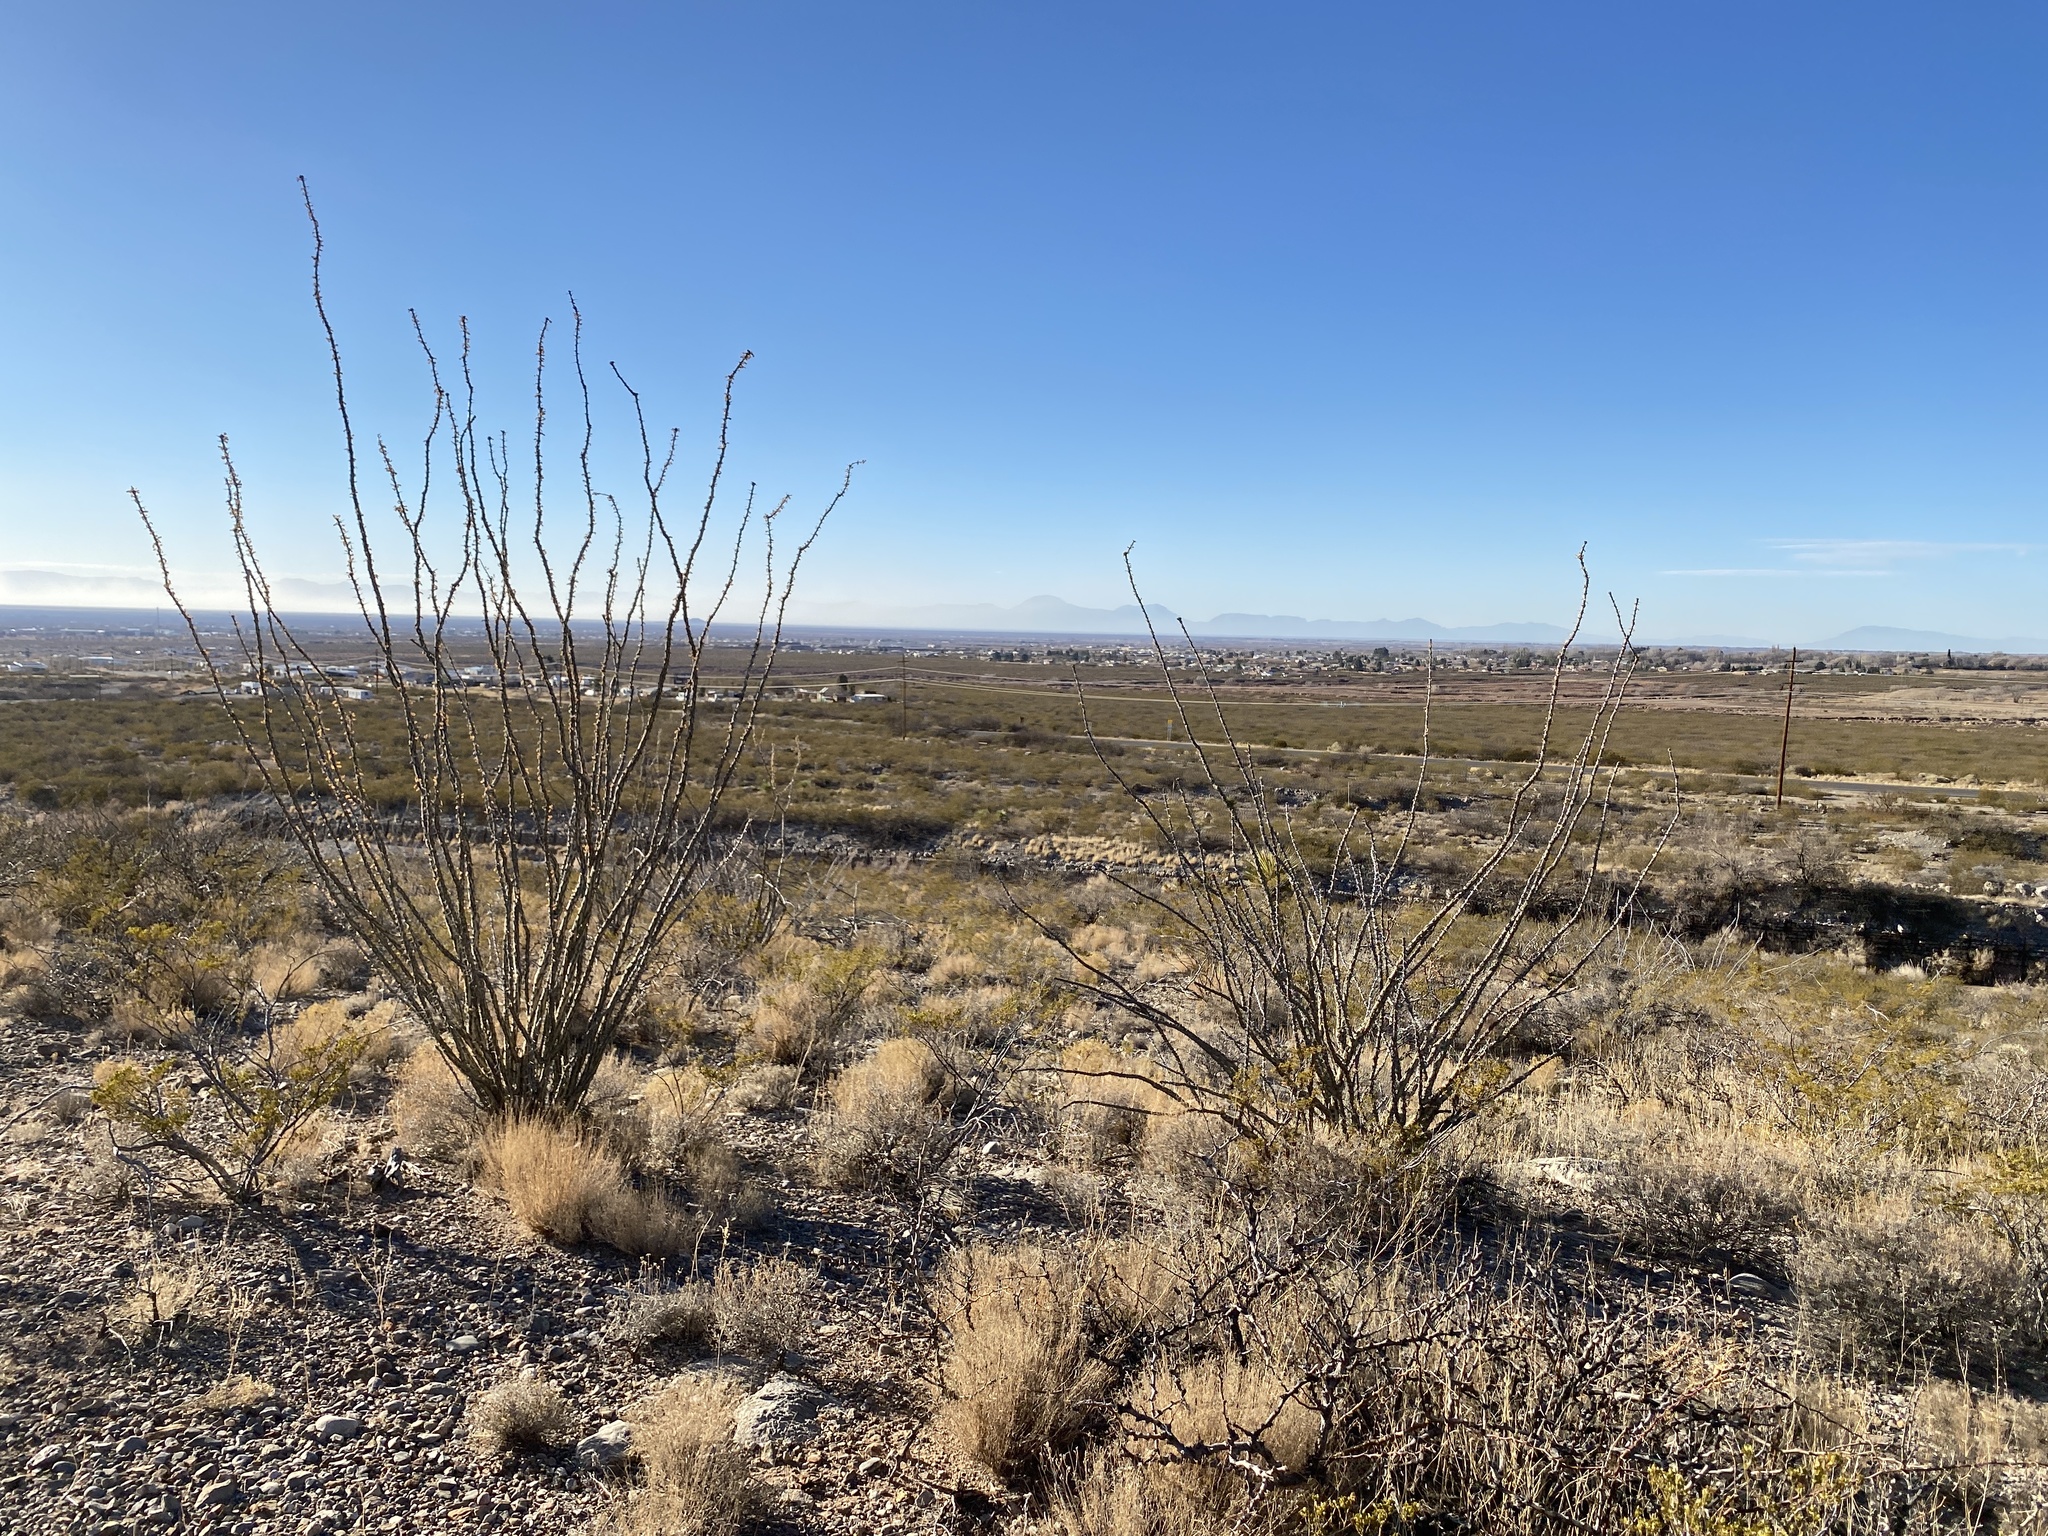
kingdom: Plantae
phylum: Tracheophyta
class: Magnoliopsida
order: Ericales
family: Fouquieriaceae
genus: Fouquieria
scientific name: Fouquieria splendens
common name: Vine-cactus
